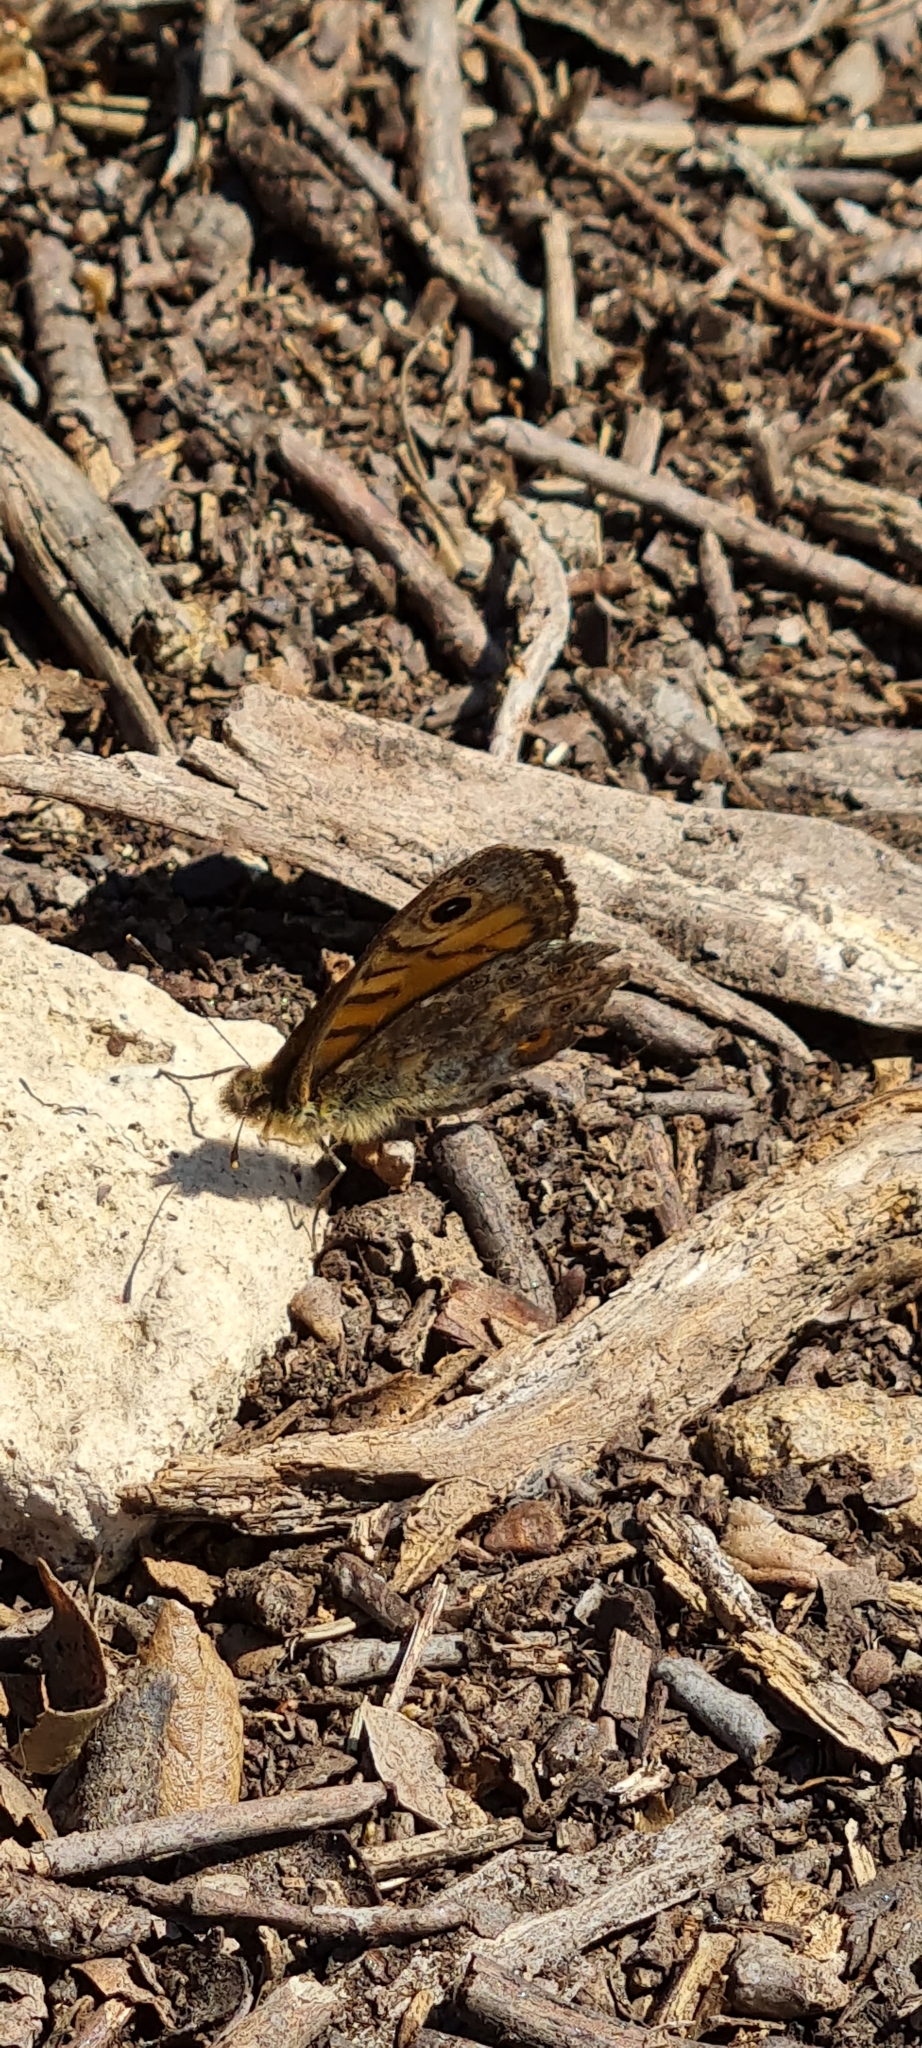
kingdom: Animalia
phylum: Arthropoda
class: Insecta
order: Lepidoptera
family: Nymphalidae
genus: Pararge
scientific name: Pararge Lasiommata megera
